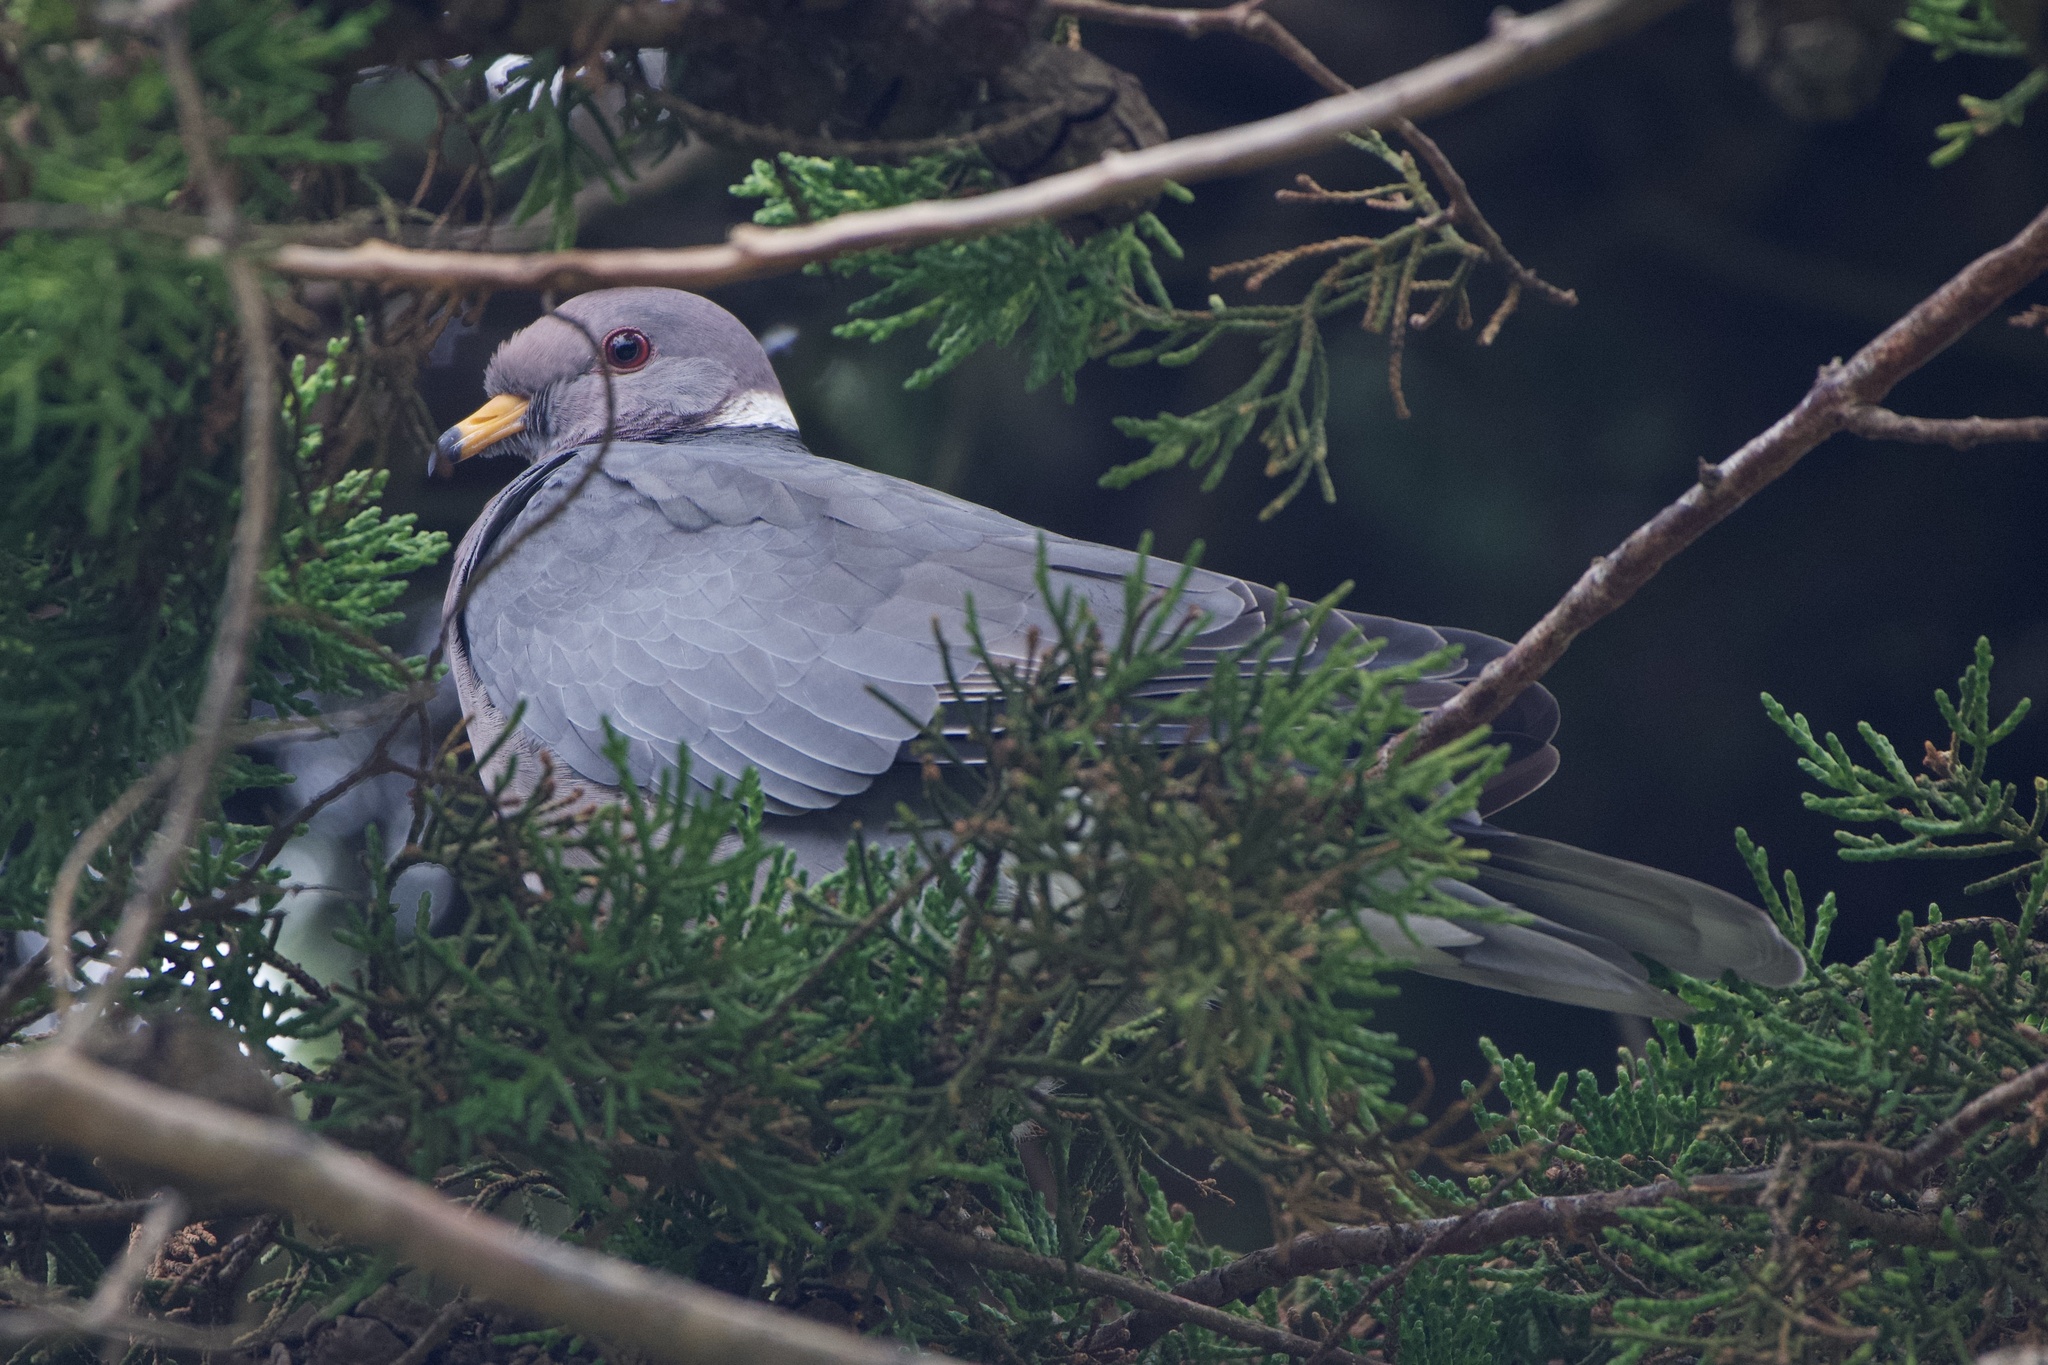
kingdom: Animalia
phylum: Chordata
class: Aves
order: Columbiformes
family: Columbidae
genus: Patagioenas
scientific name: Patagioenas fasciata
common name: Band-tailed pigeon
